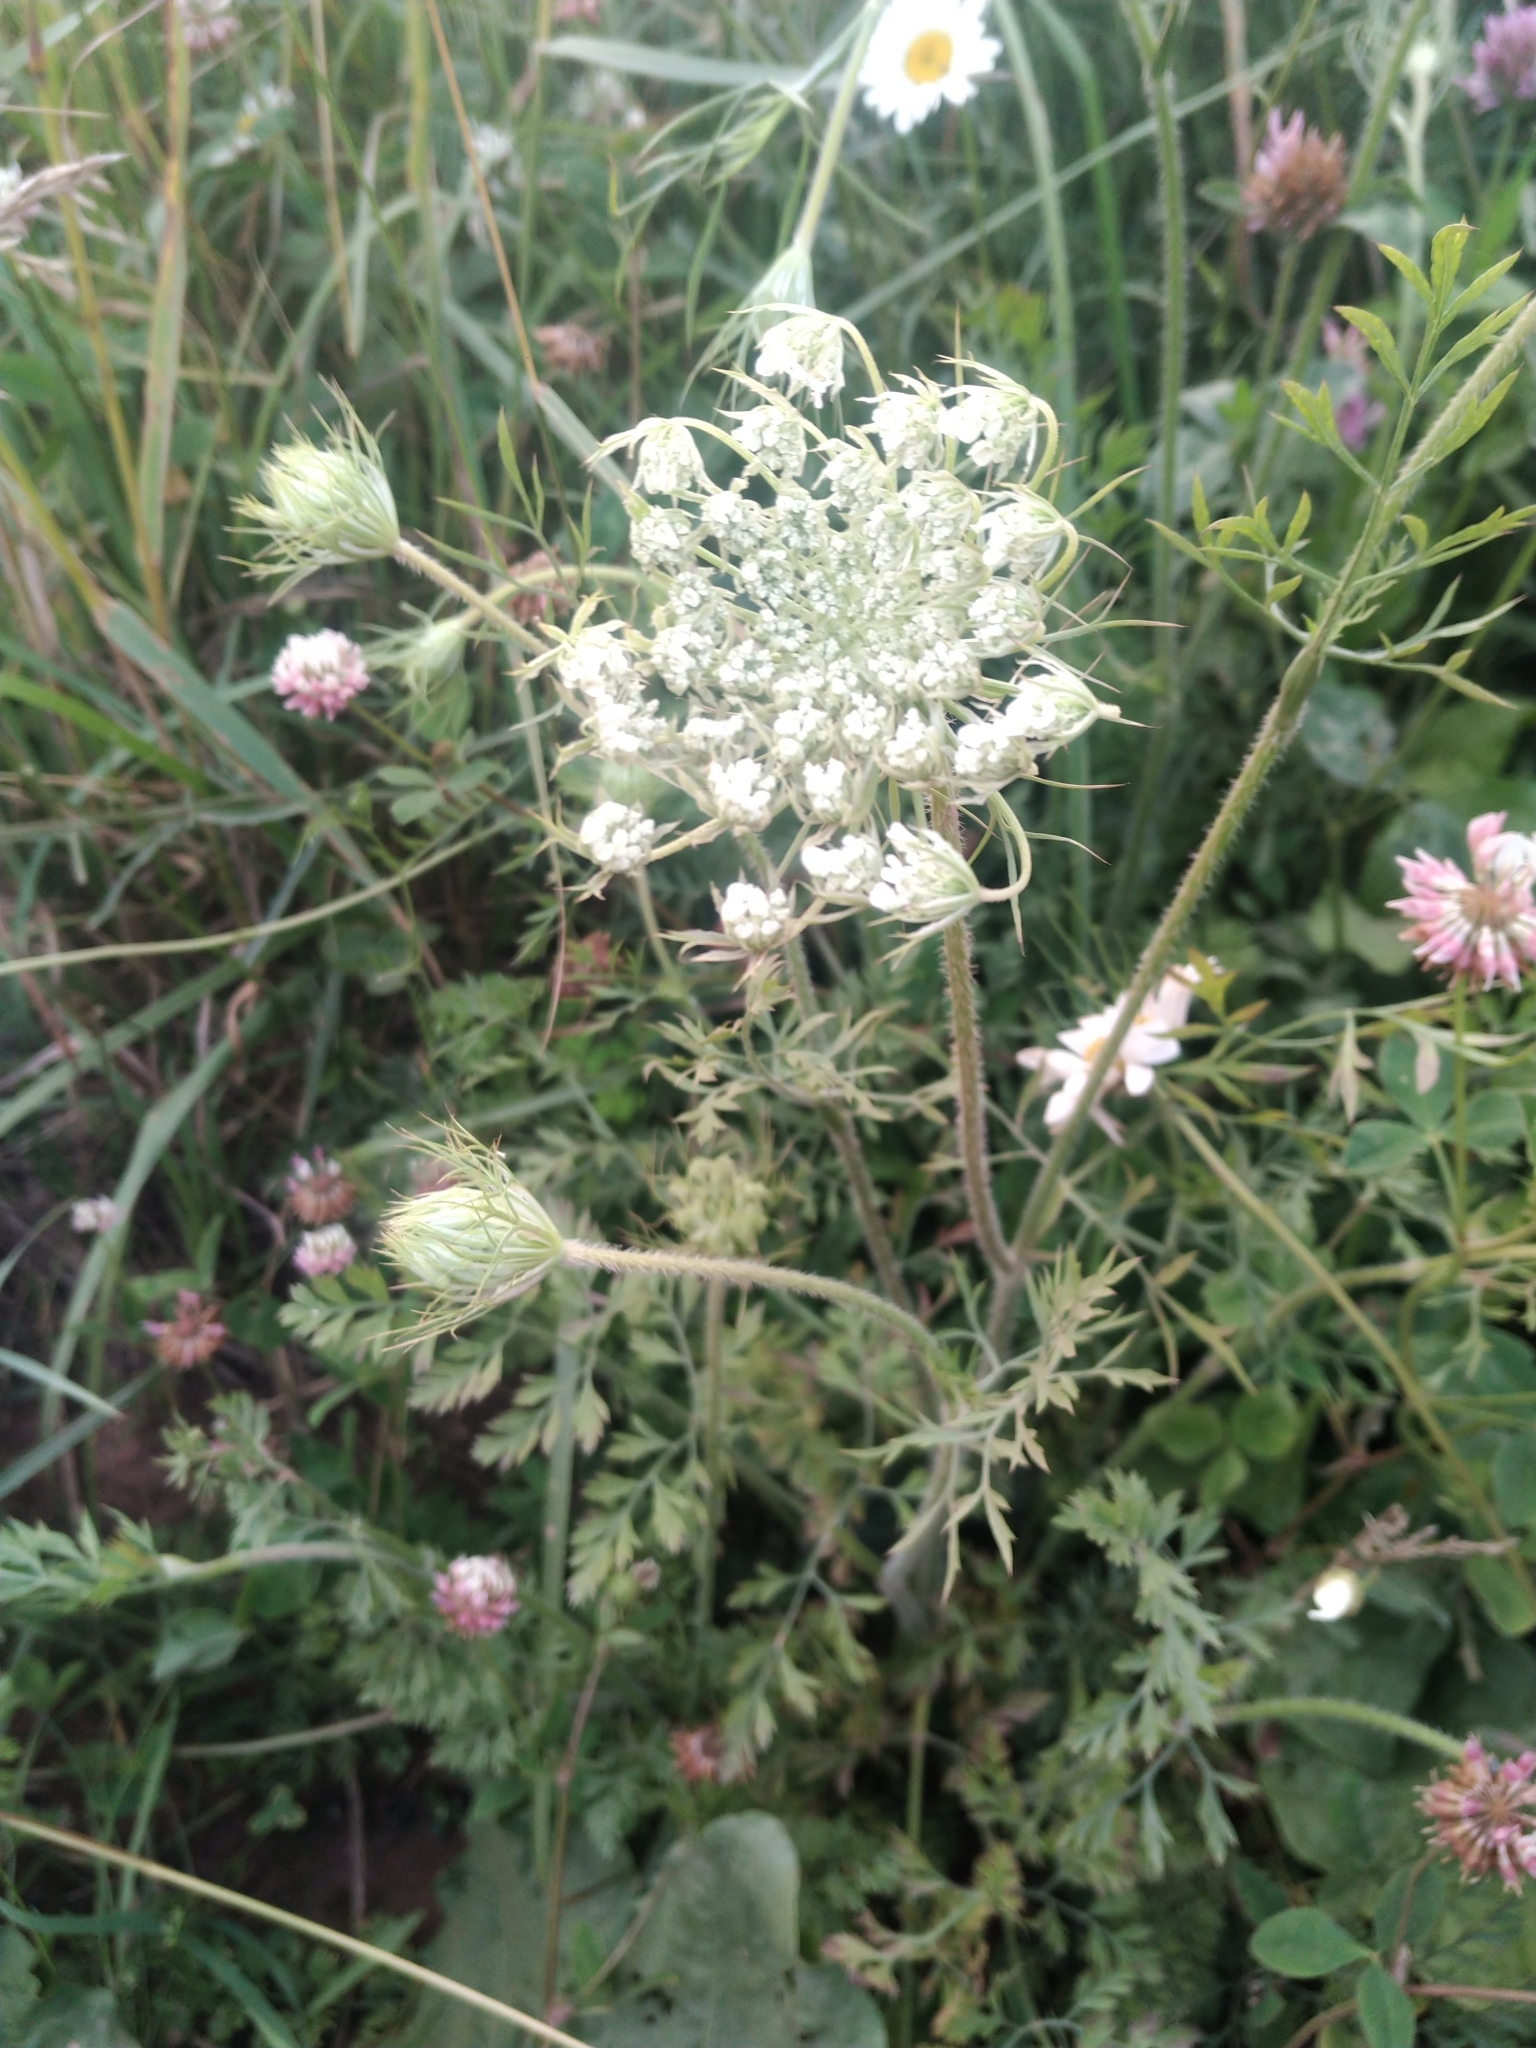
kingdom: Plantae
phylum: Tracheophyta
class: Magnoliopsida
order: Apiales
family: Apiaceae
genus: Daucus
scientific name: Daucus carota
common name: Wild carrot
